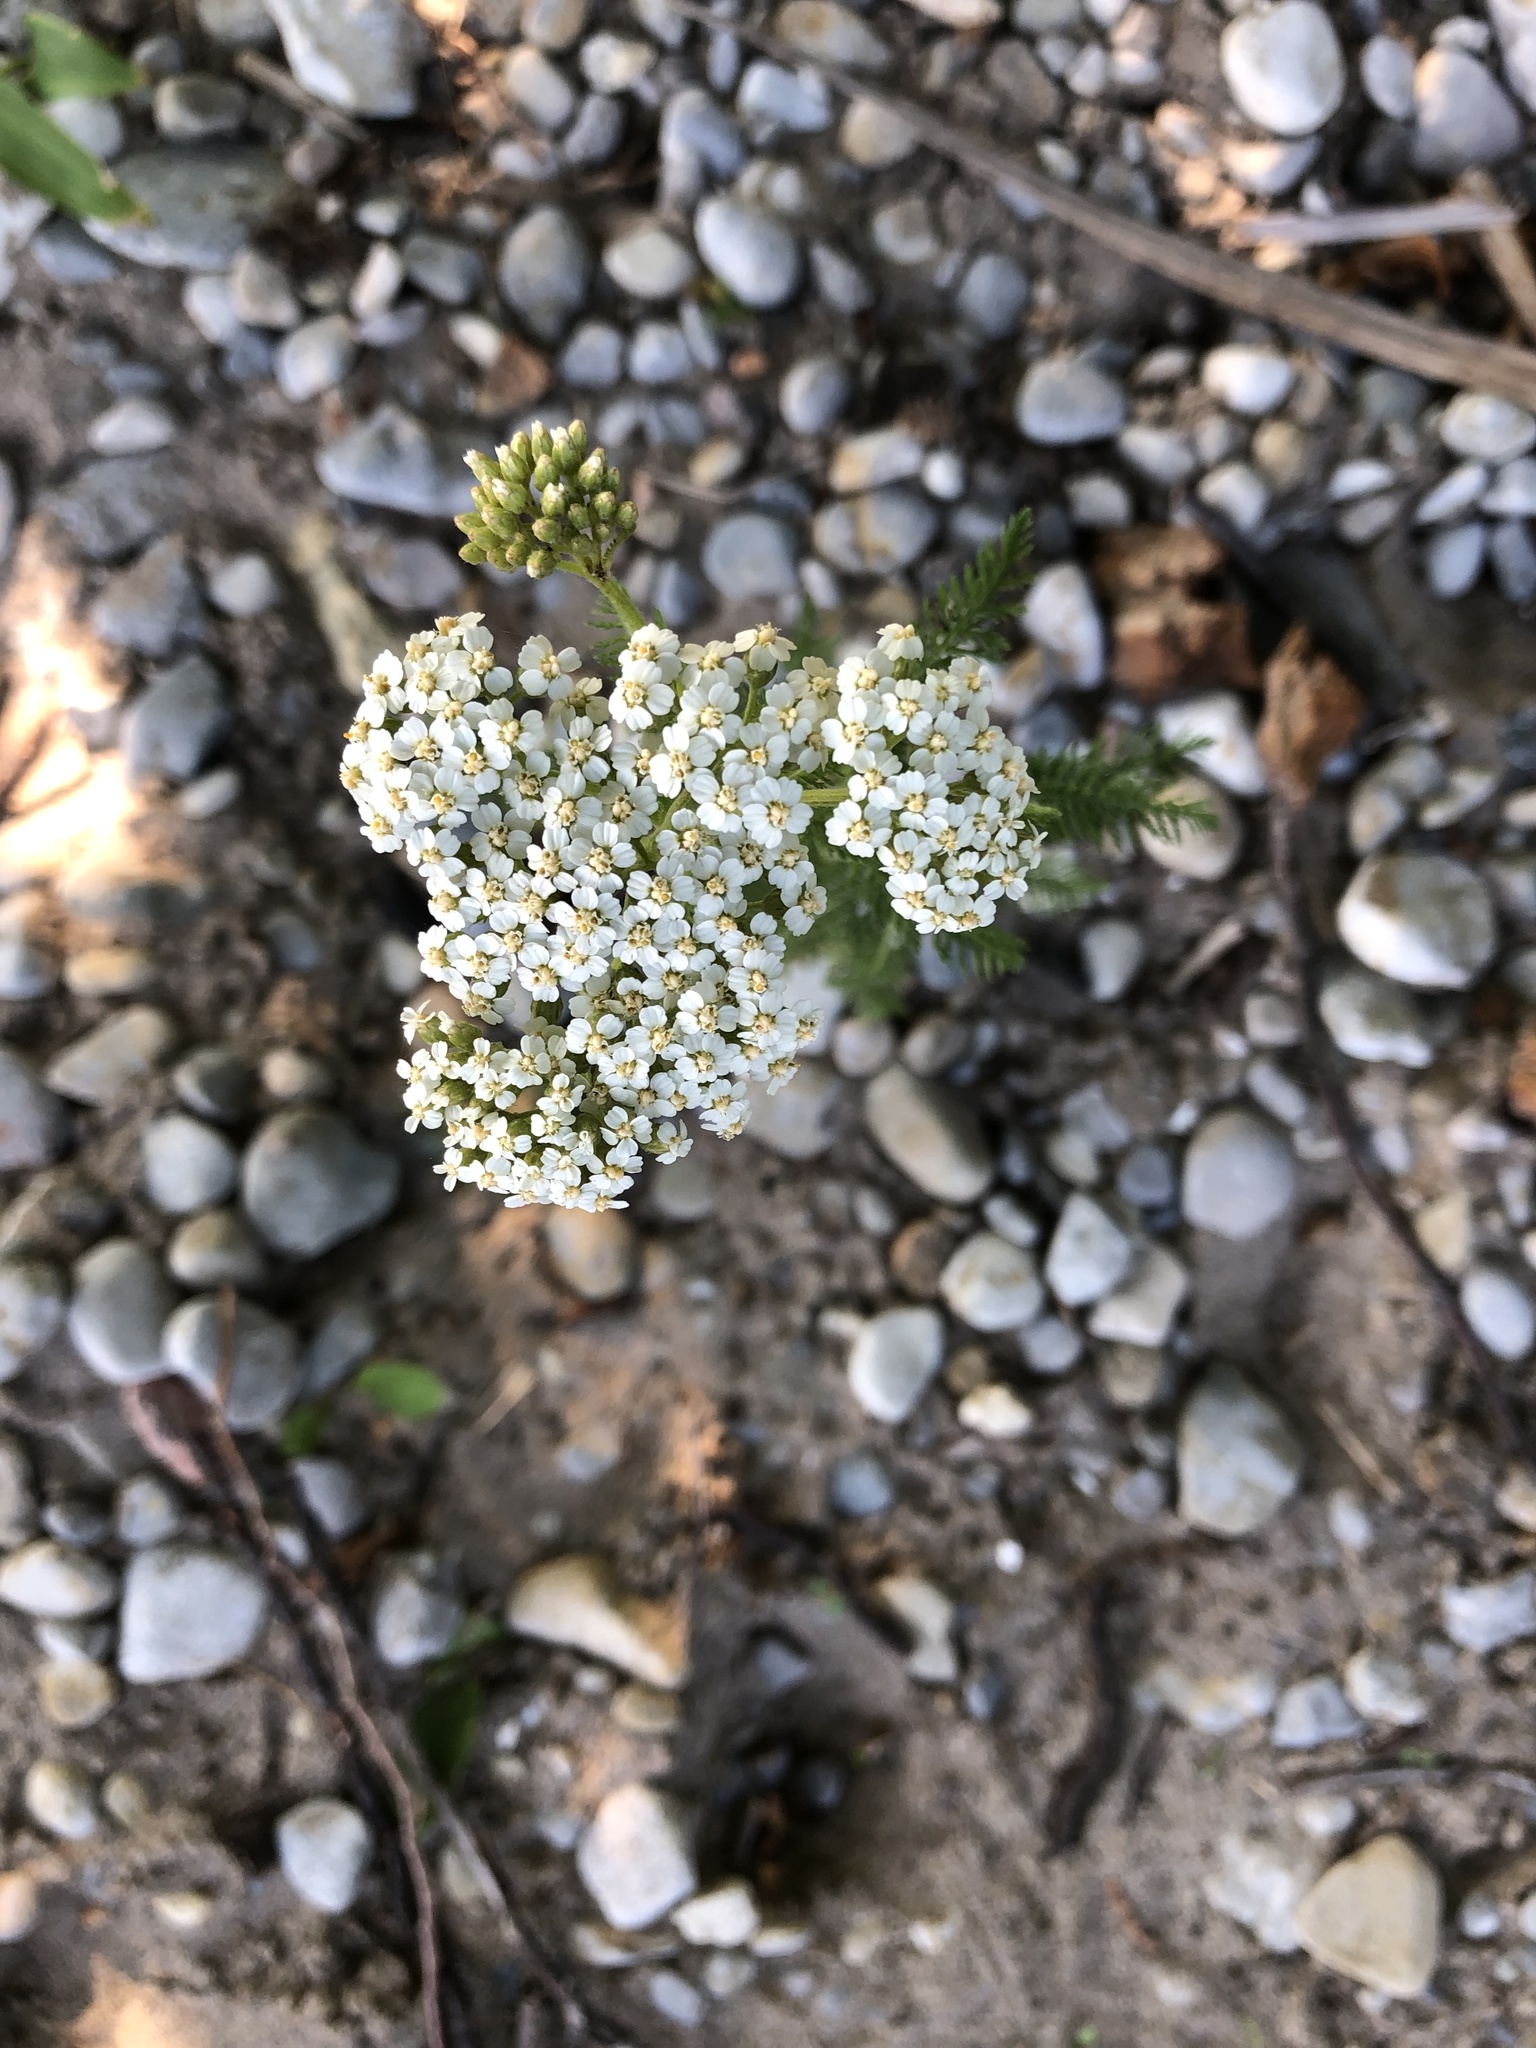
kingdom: Plantae
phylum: Tracheophyta
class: Magnoliopsida
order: Asterales
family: Asteraceae
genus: Achillea
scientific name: Achillea millefolium
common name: Yarrow
